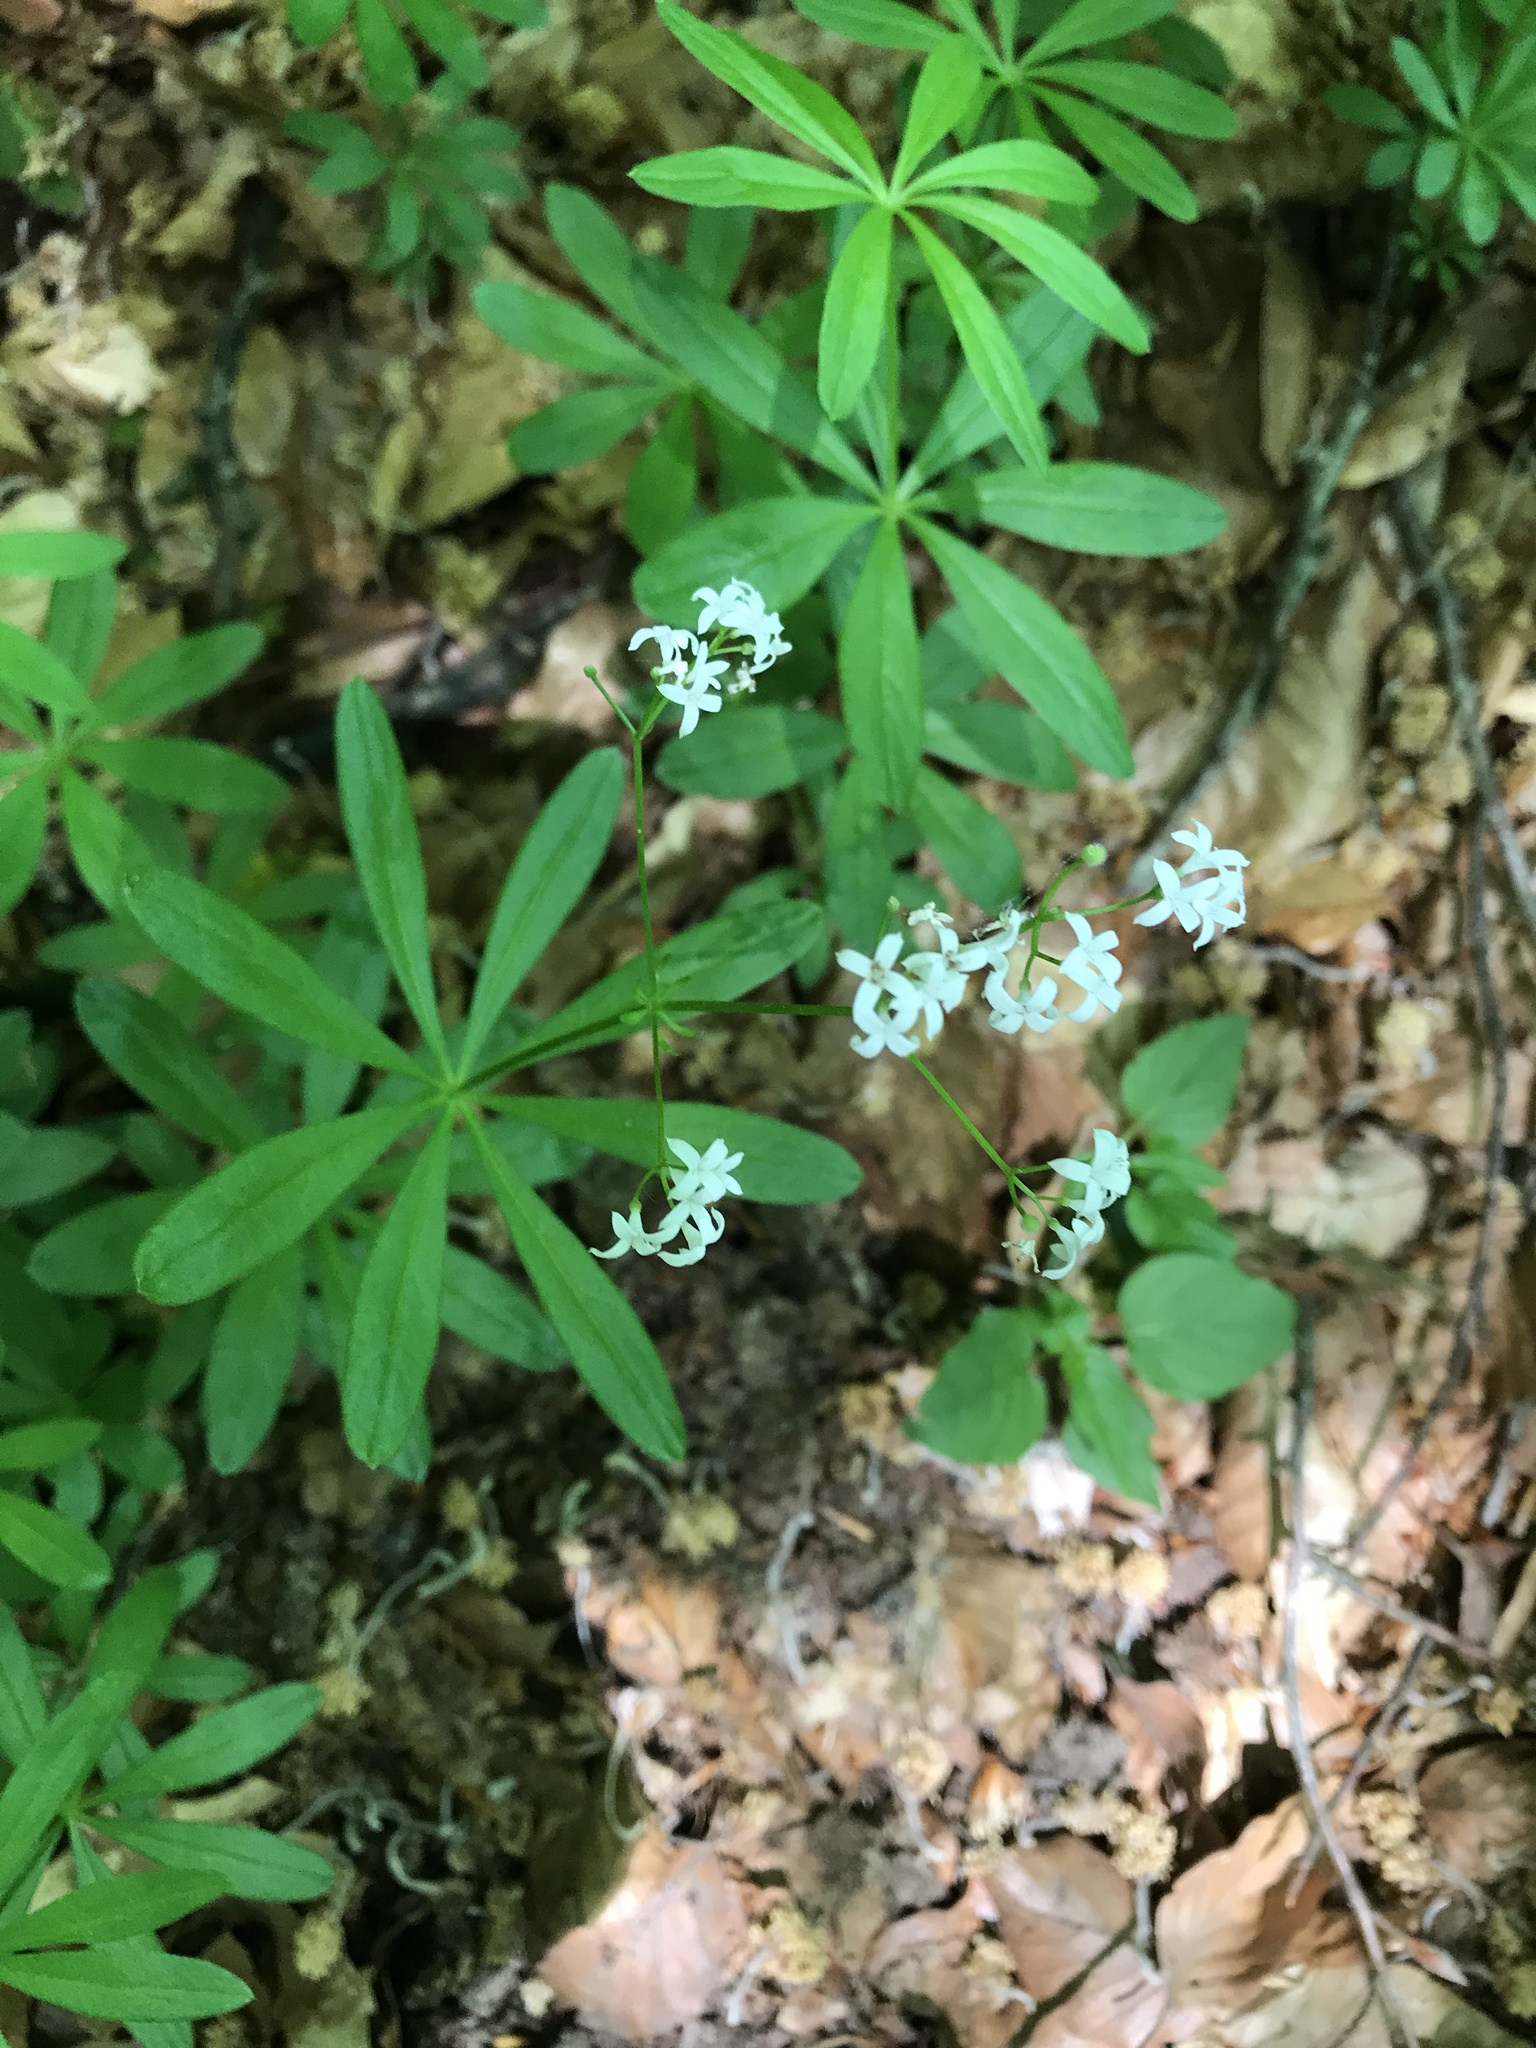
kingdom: Plantae
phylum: Tracheophyta
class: Magnoliopsida
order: Gentianales
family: Rubiaceae
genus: Galium
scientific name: Galium odoratum
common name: Sweet woodruff
